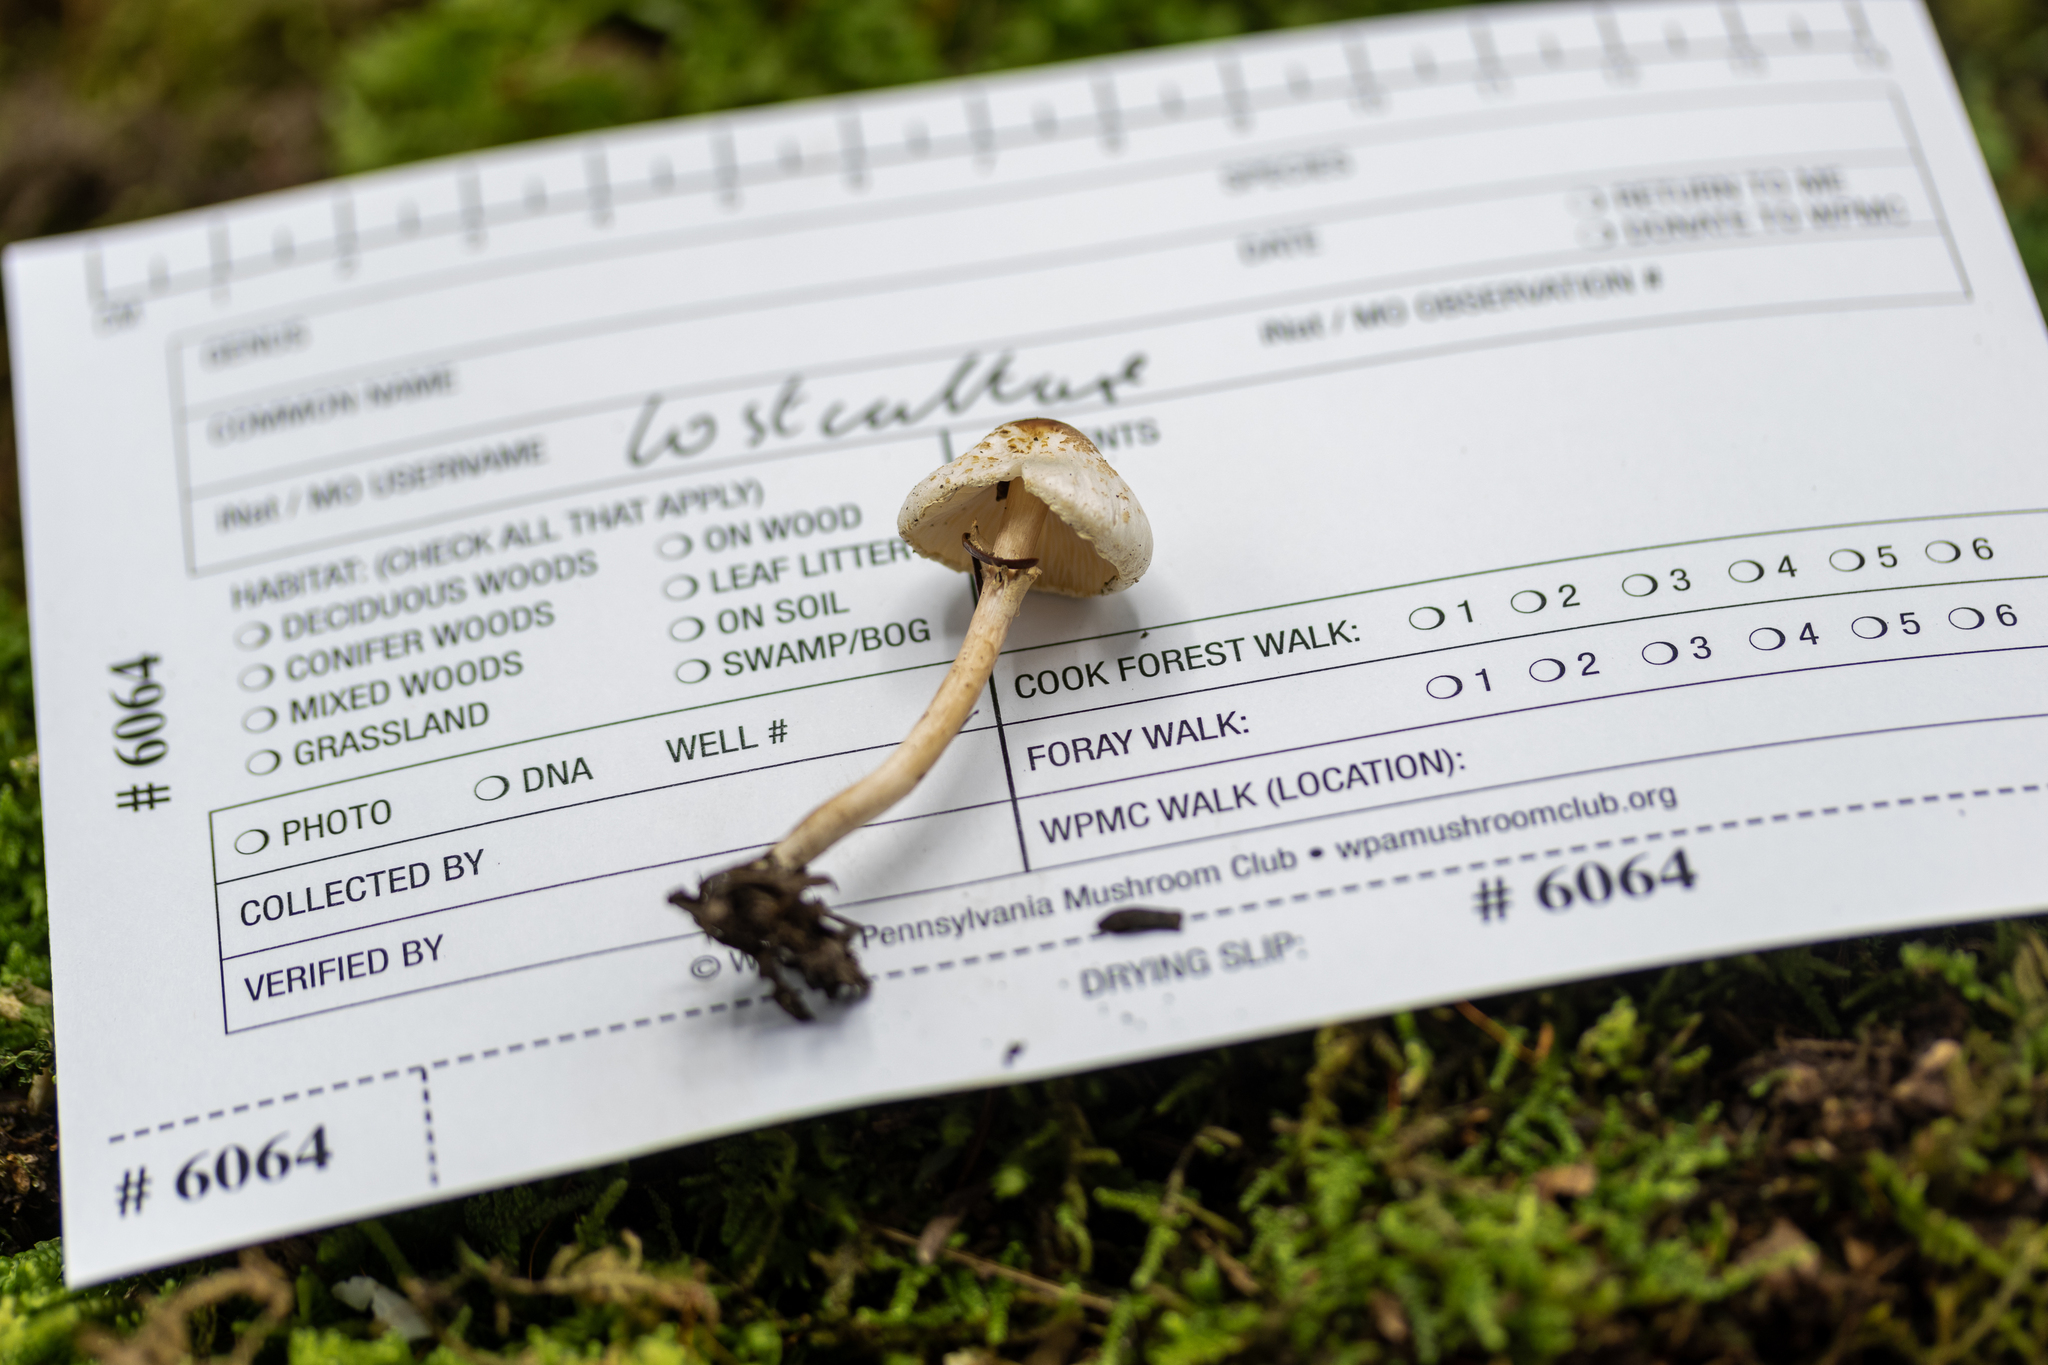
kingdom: Fungi
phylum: Basidiomycota
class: Agaricomycetes
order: Agaricales
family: Agaricaceae
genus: Lepiota
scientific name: Lepiota cristata
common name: Stinking dapperling
